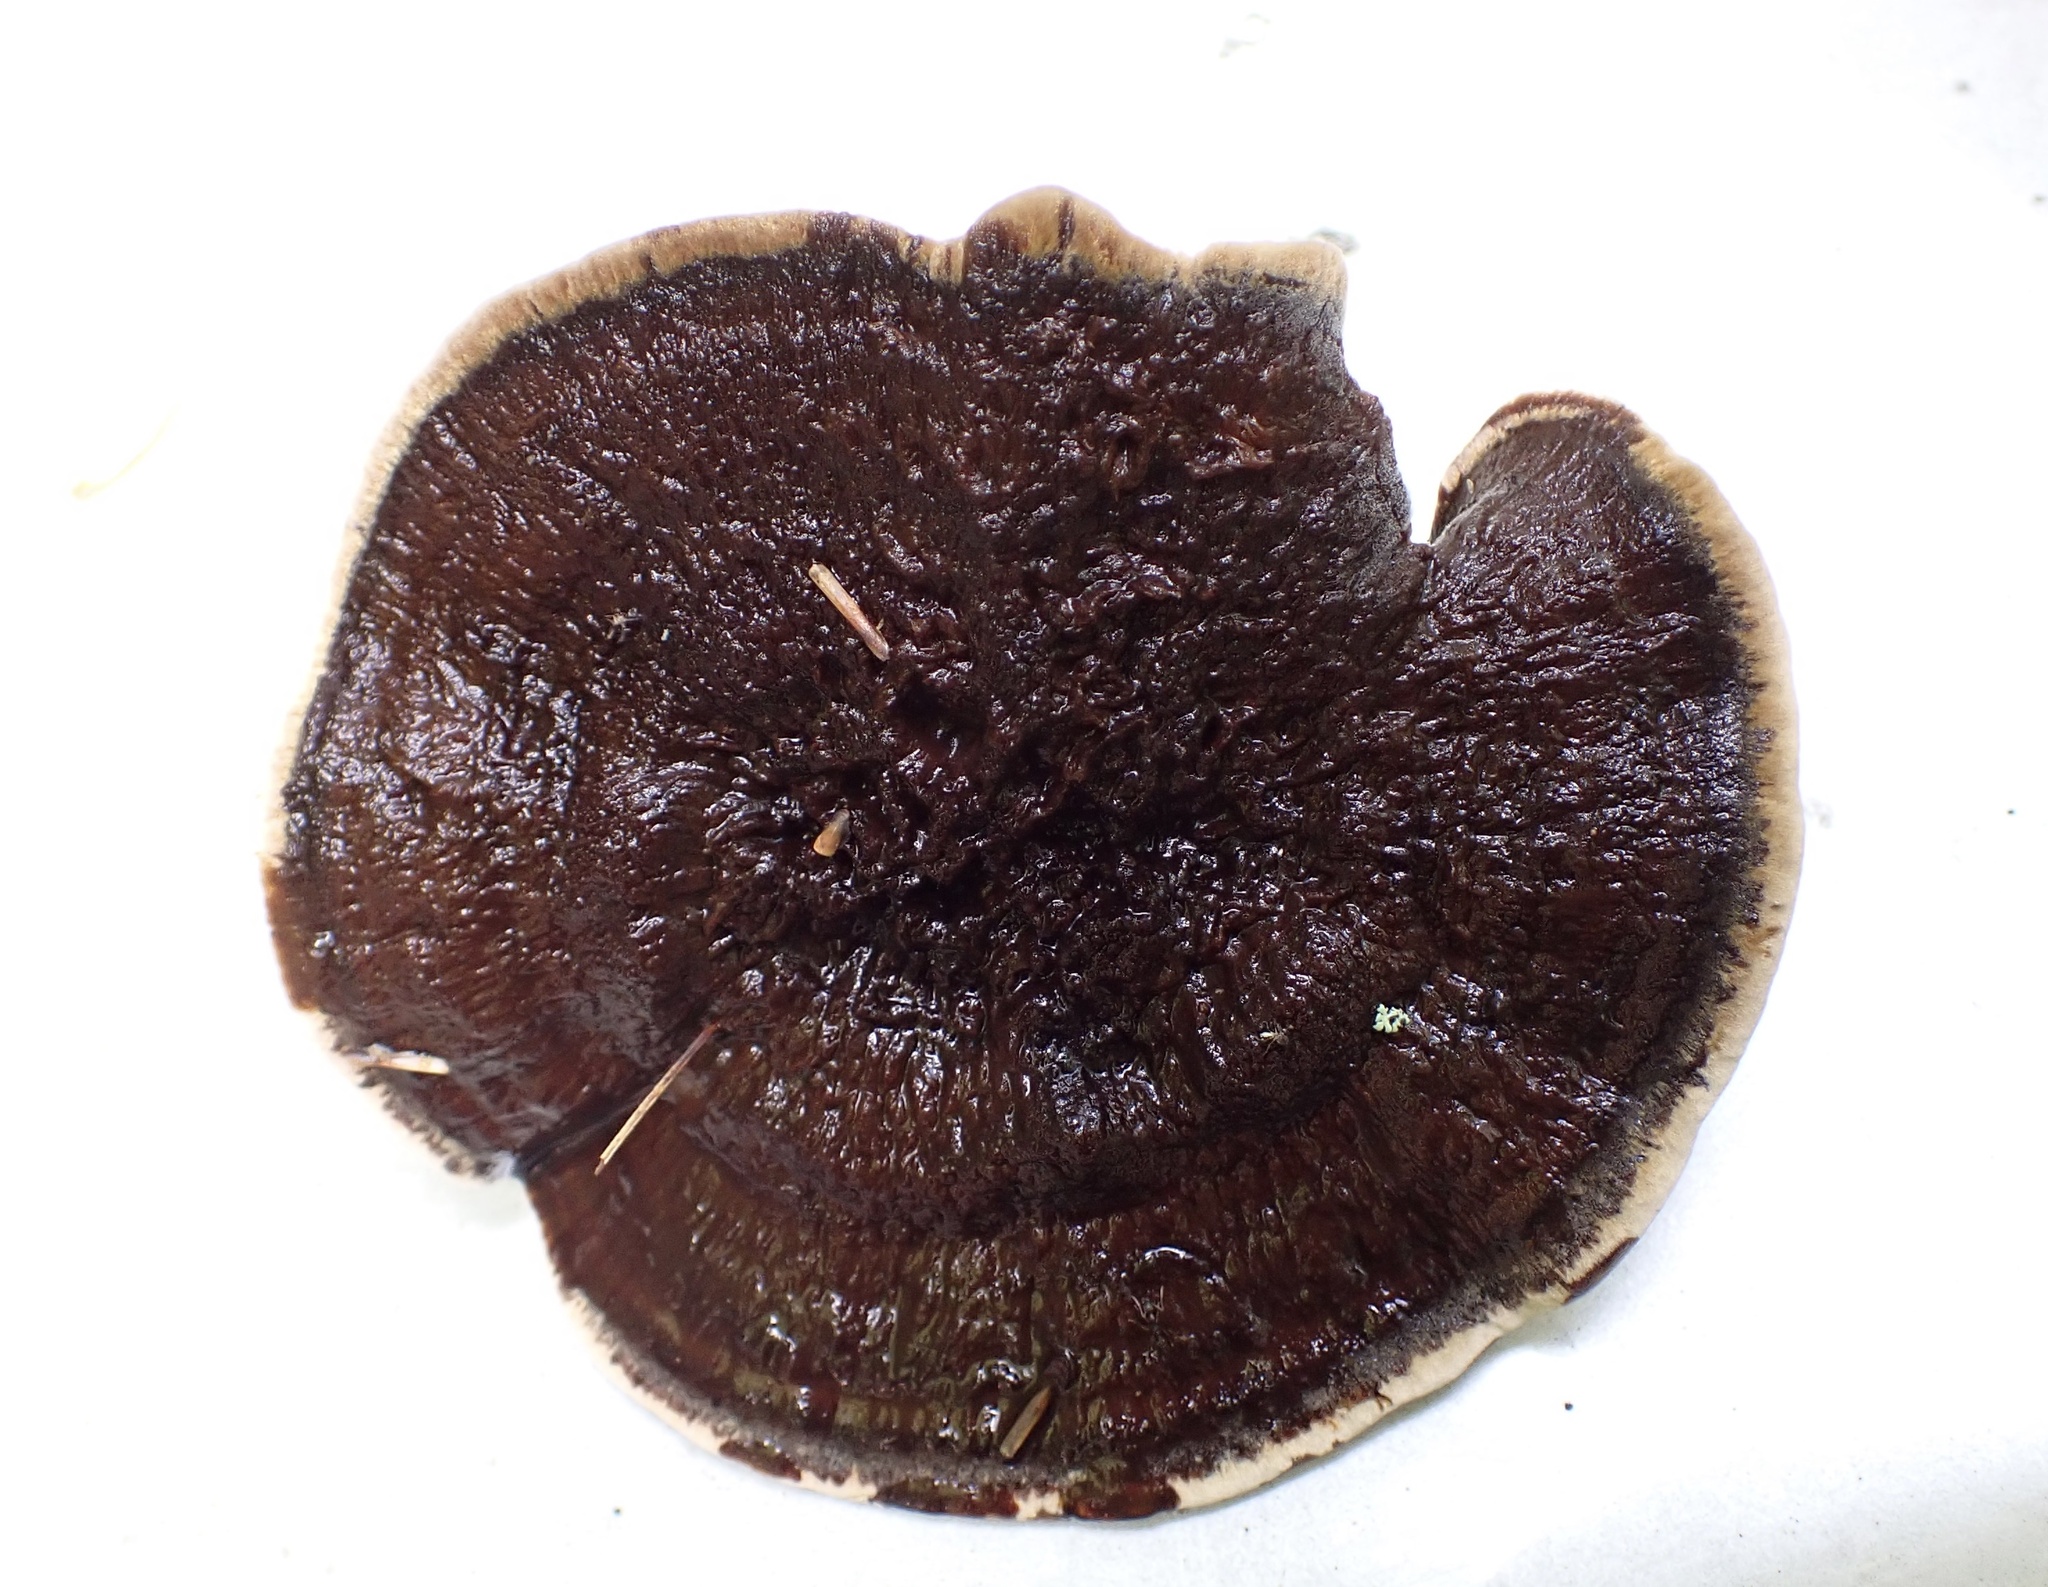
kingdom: Fungi
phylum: Basidiomycota
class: Agaricomycetes
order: Hymenochaetales
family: Hymenochaetaceae
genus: Coltricia
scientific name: Coltricia montagnei
